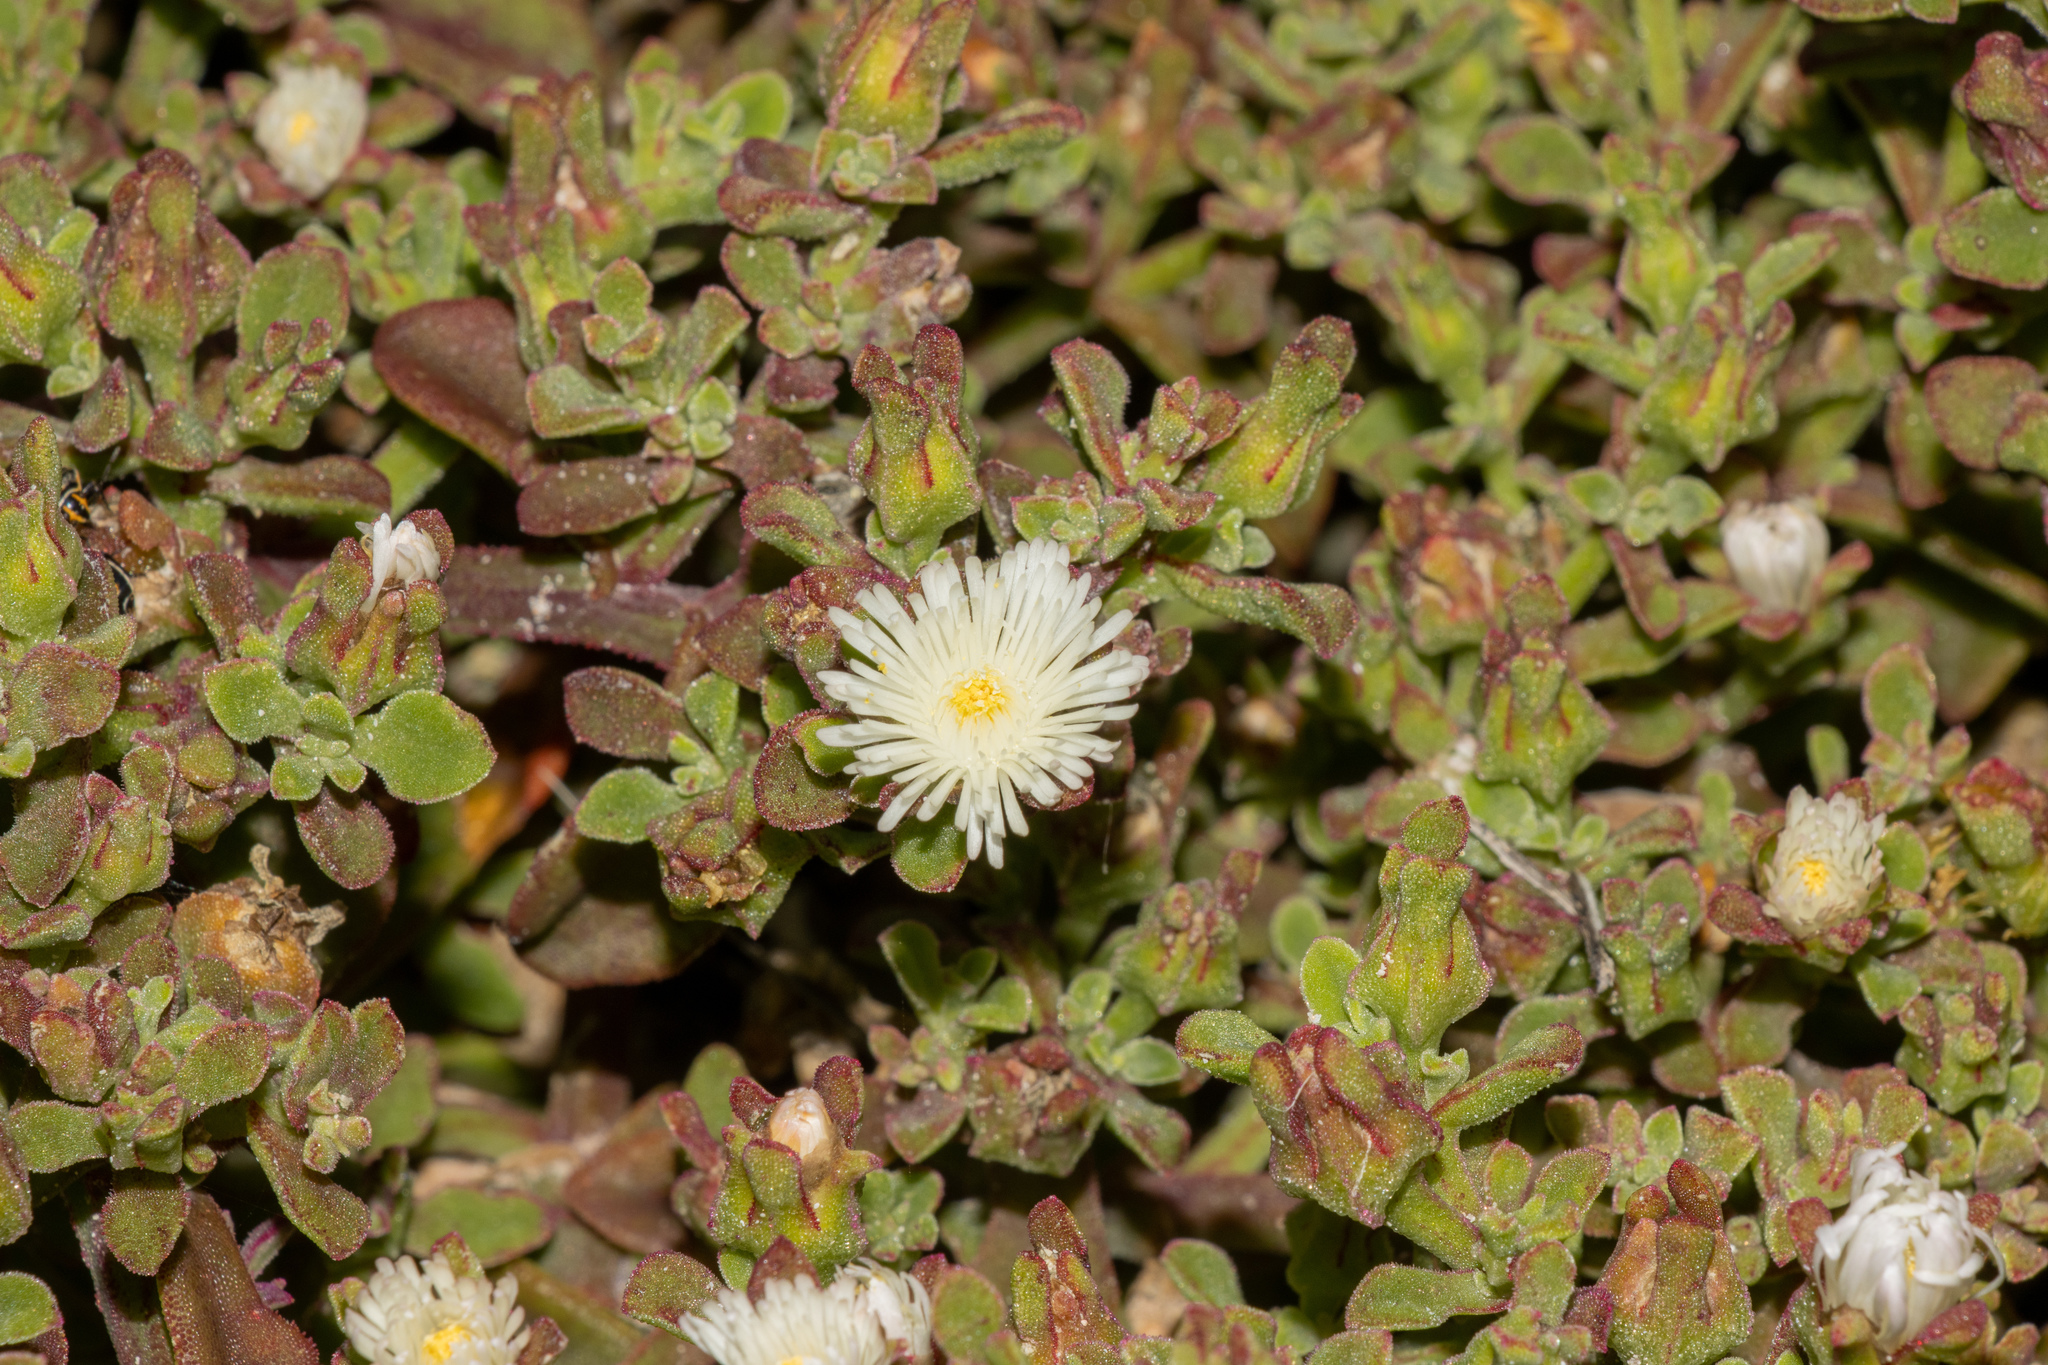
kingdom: Plantae
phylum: Tracheophyta
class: Magnoliopsida
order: Caryophyllales
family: Aizoaceae
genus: Mesembryanthemum
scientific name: Mesembryanthemum aitonis
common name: Angled iceplant
